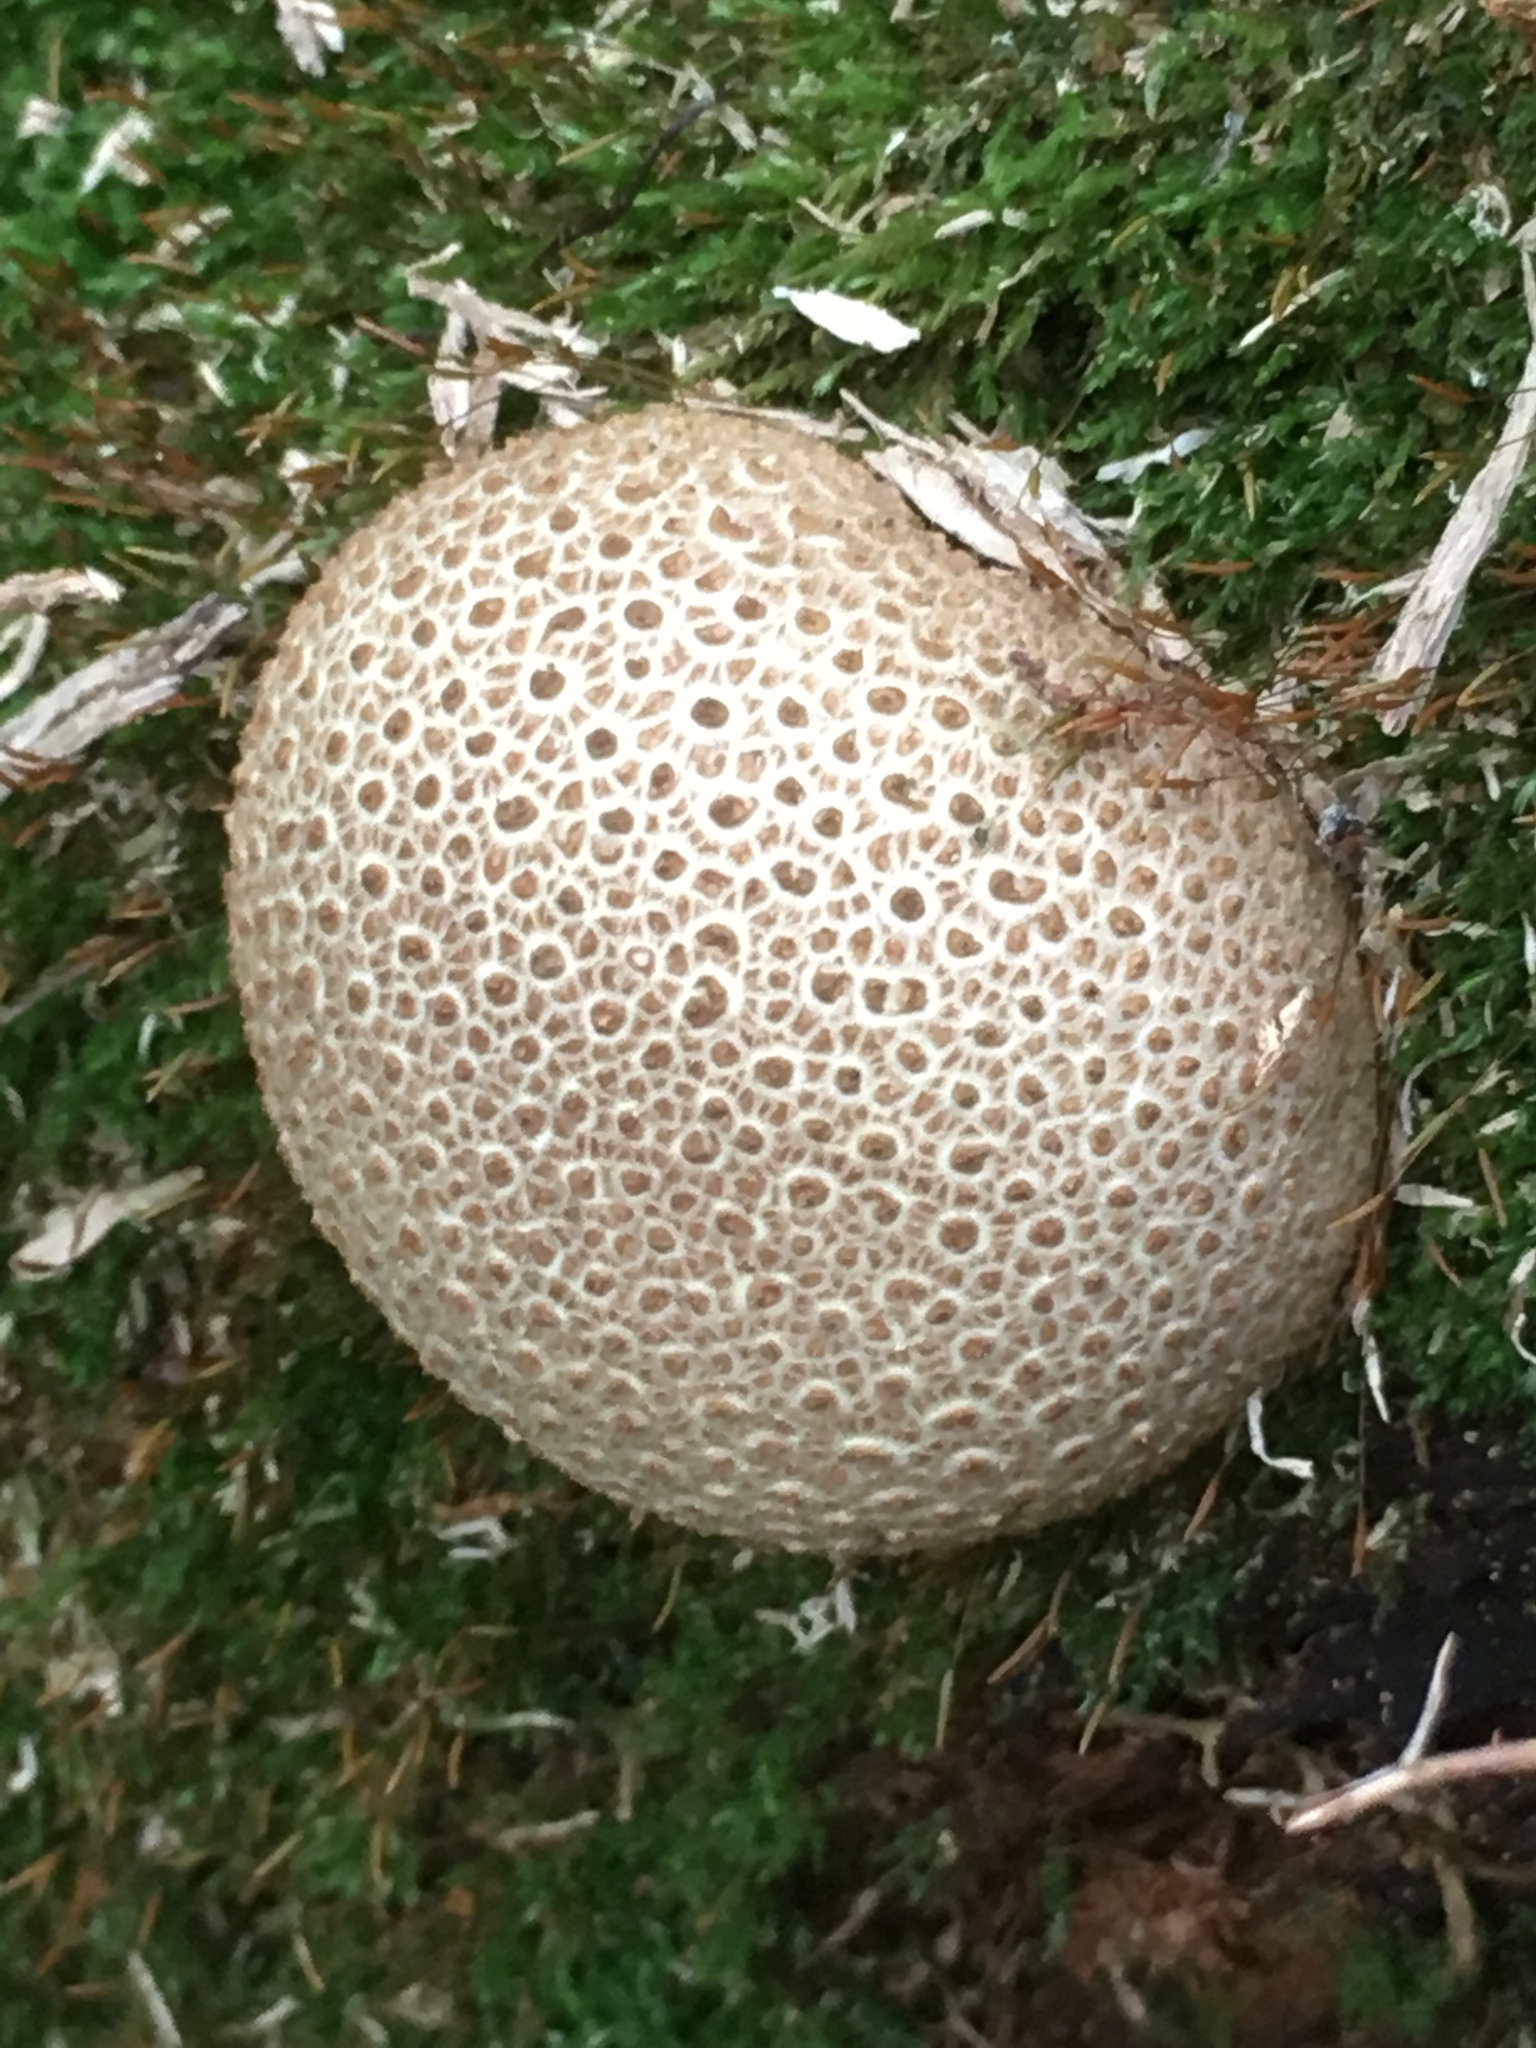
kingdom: Fungi
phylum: Basidiomycota
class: Agaricomycetes
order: Boletales
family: Sclerodermataceae
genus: Scleroderma
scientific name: Scleroderma citrinum
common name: Common earthball
